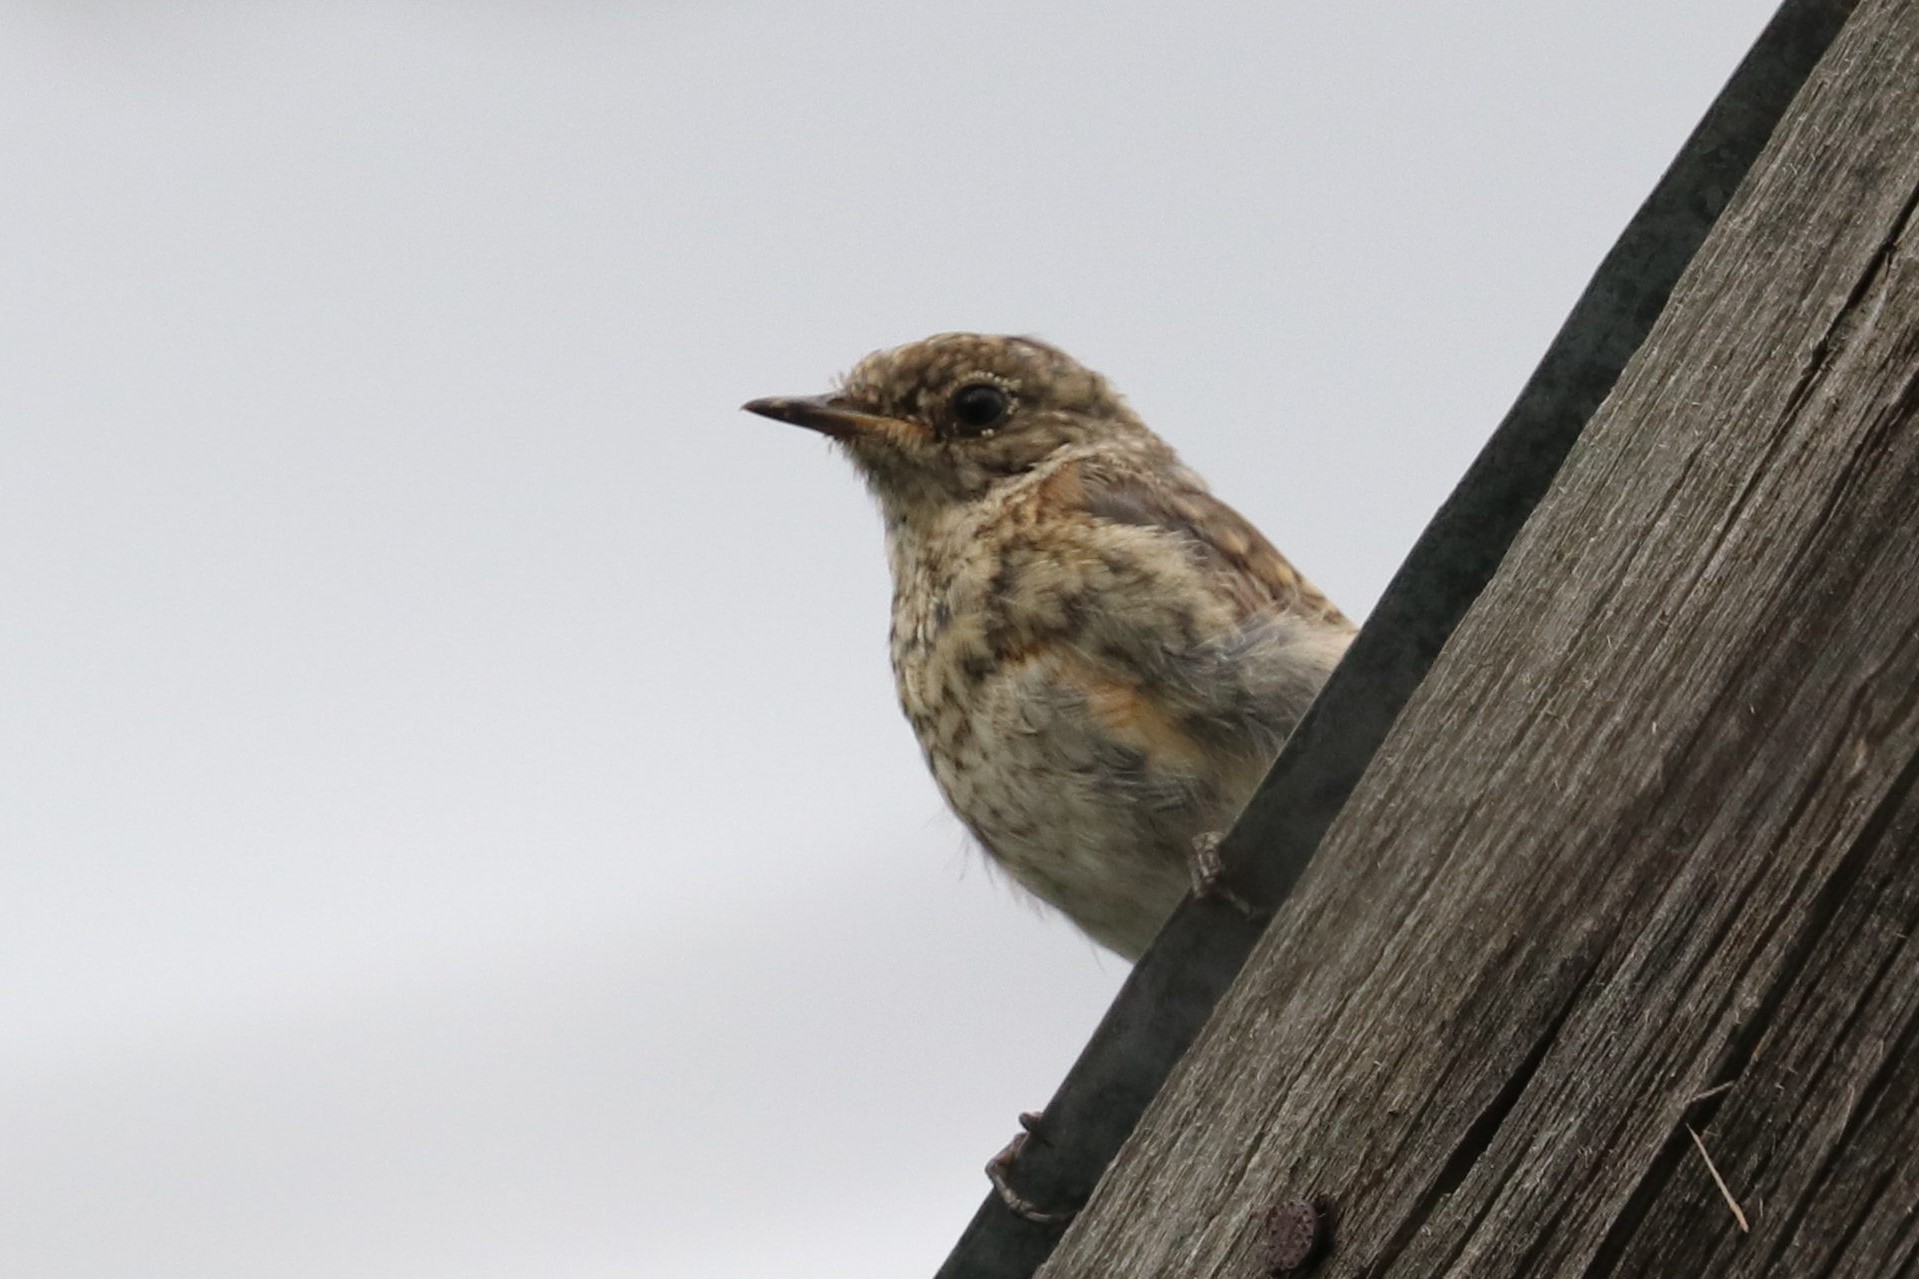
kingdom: Animalia
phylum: Chordata
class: Aves
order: Passeriformes
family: Muscicapidae
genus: Phoenicurus
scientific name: Phoenicurus phoenicurus
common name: Common redstart
